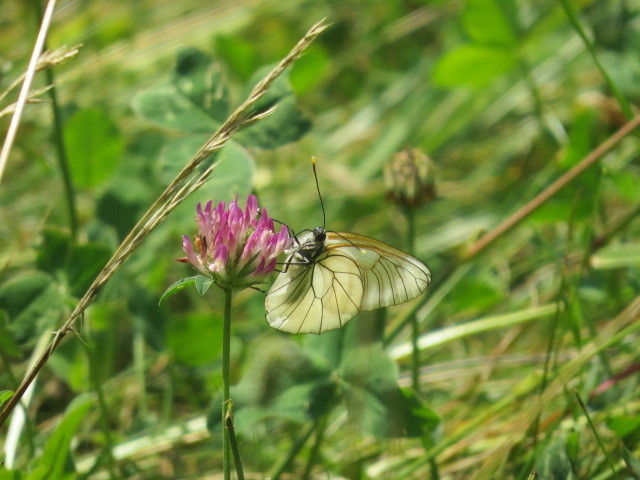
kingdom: Animalia
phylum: Arthropoda
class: Insecta
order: Lepidoptera
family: Pieridae
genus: Aporia
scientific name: Aporia crataegi
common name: Black-veined white
